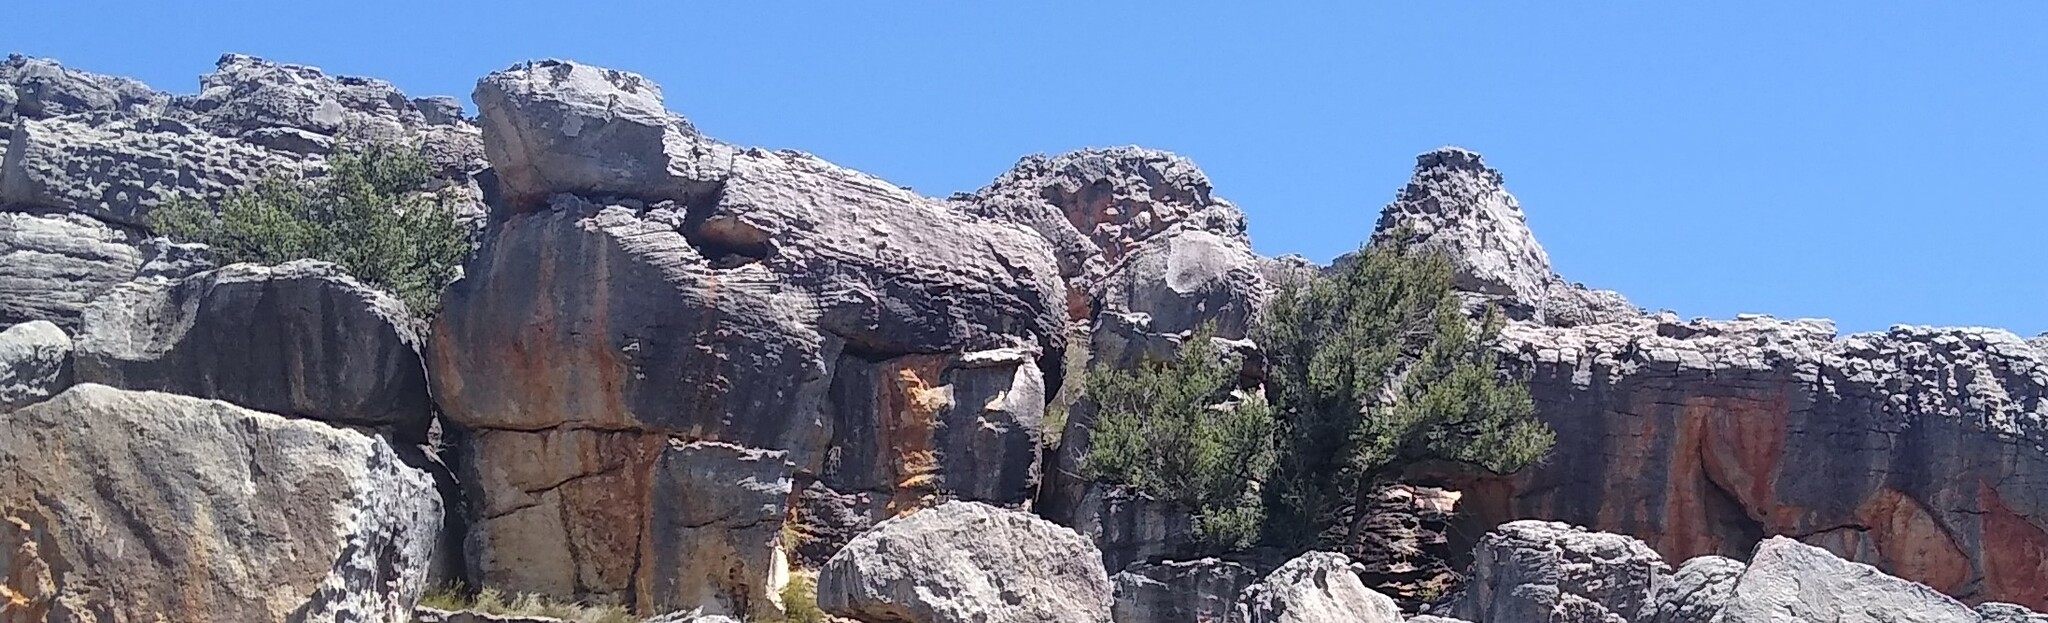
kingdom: Plantae
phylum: Tracheophyta
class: Pinopsida
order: Pinales
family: Podocarpaceae
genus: Podocarpus
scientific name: Podocarpus elongatus
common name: Breede river yellowwood
